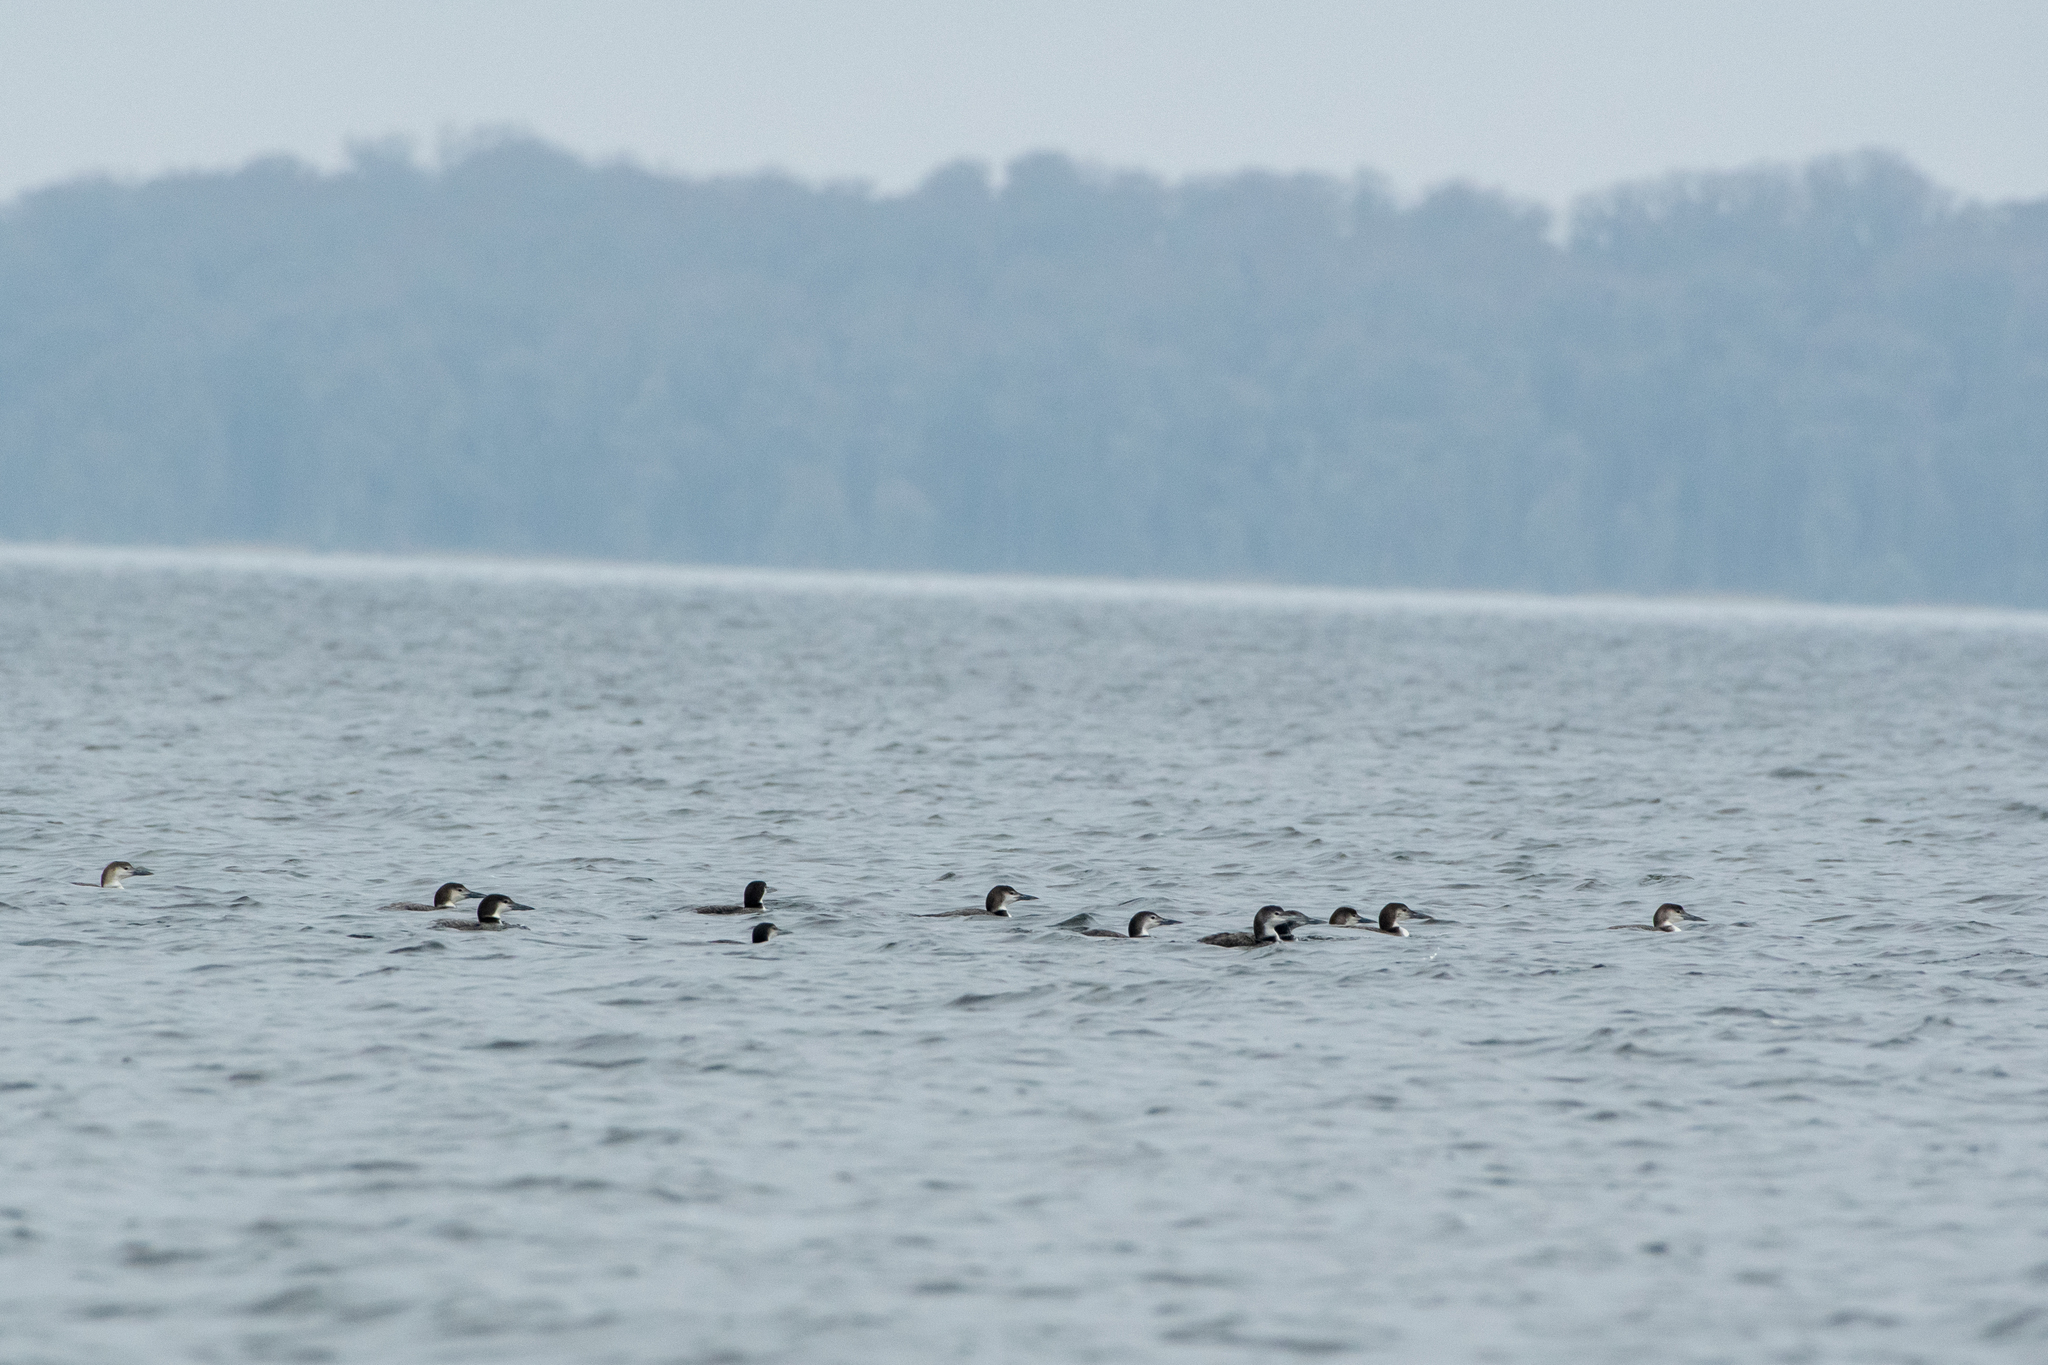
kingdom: Animalia
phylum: Chordata
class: Aves
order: Gaviiformes
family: Gaviidae
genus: Gavia
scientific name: Gavia immer
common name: Common loon
